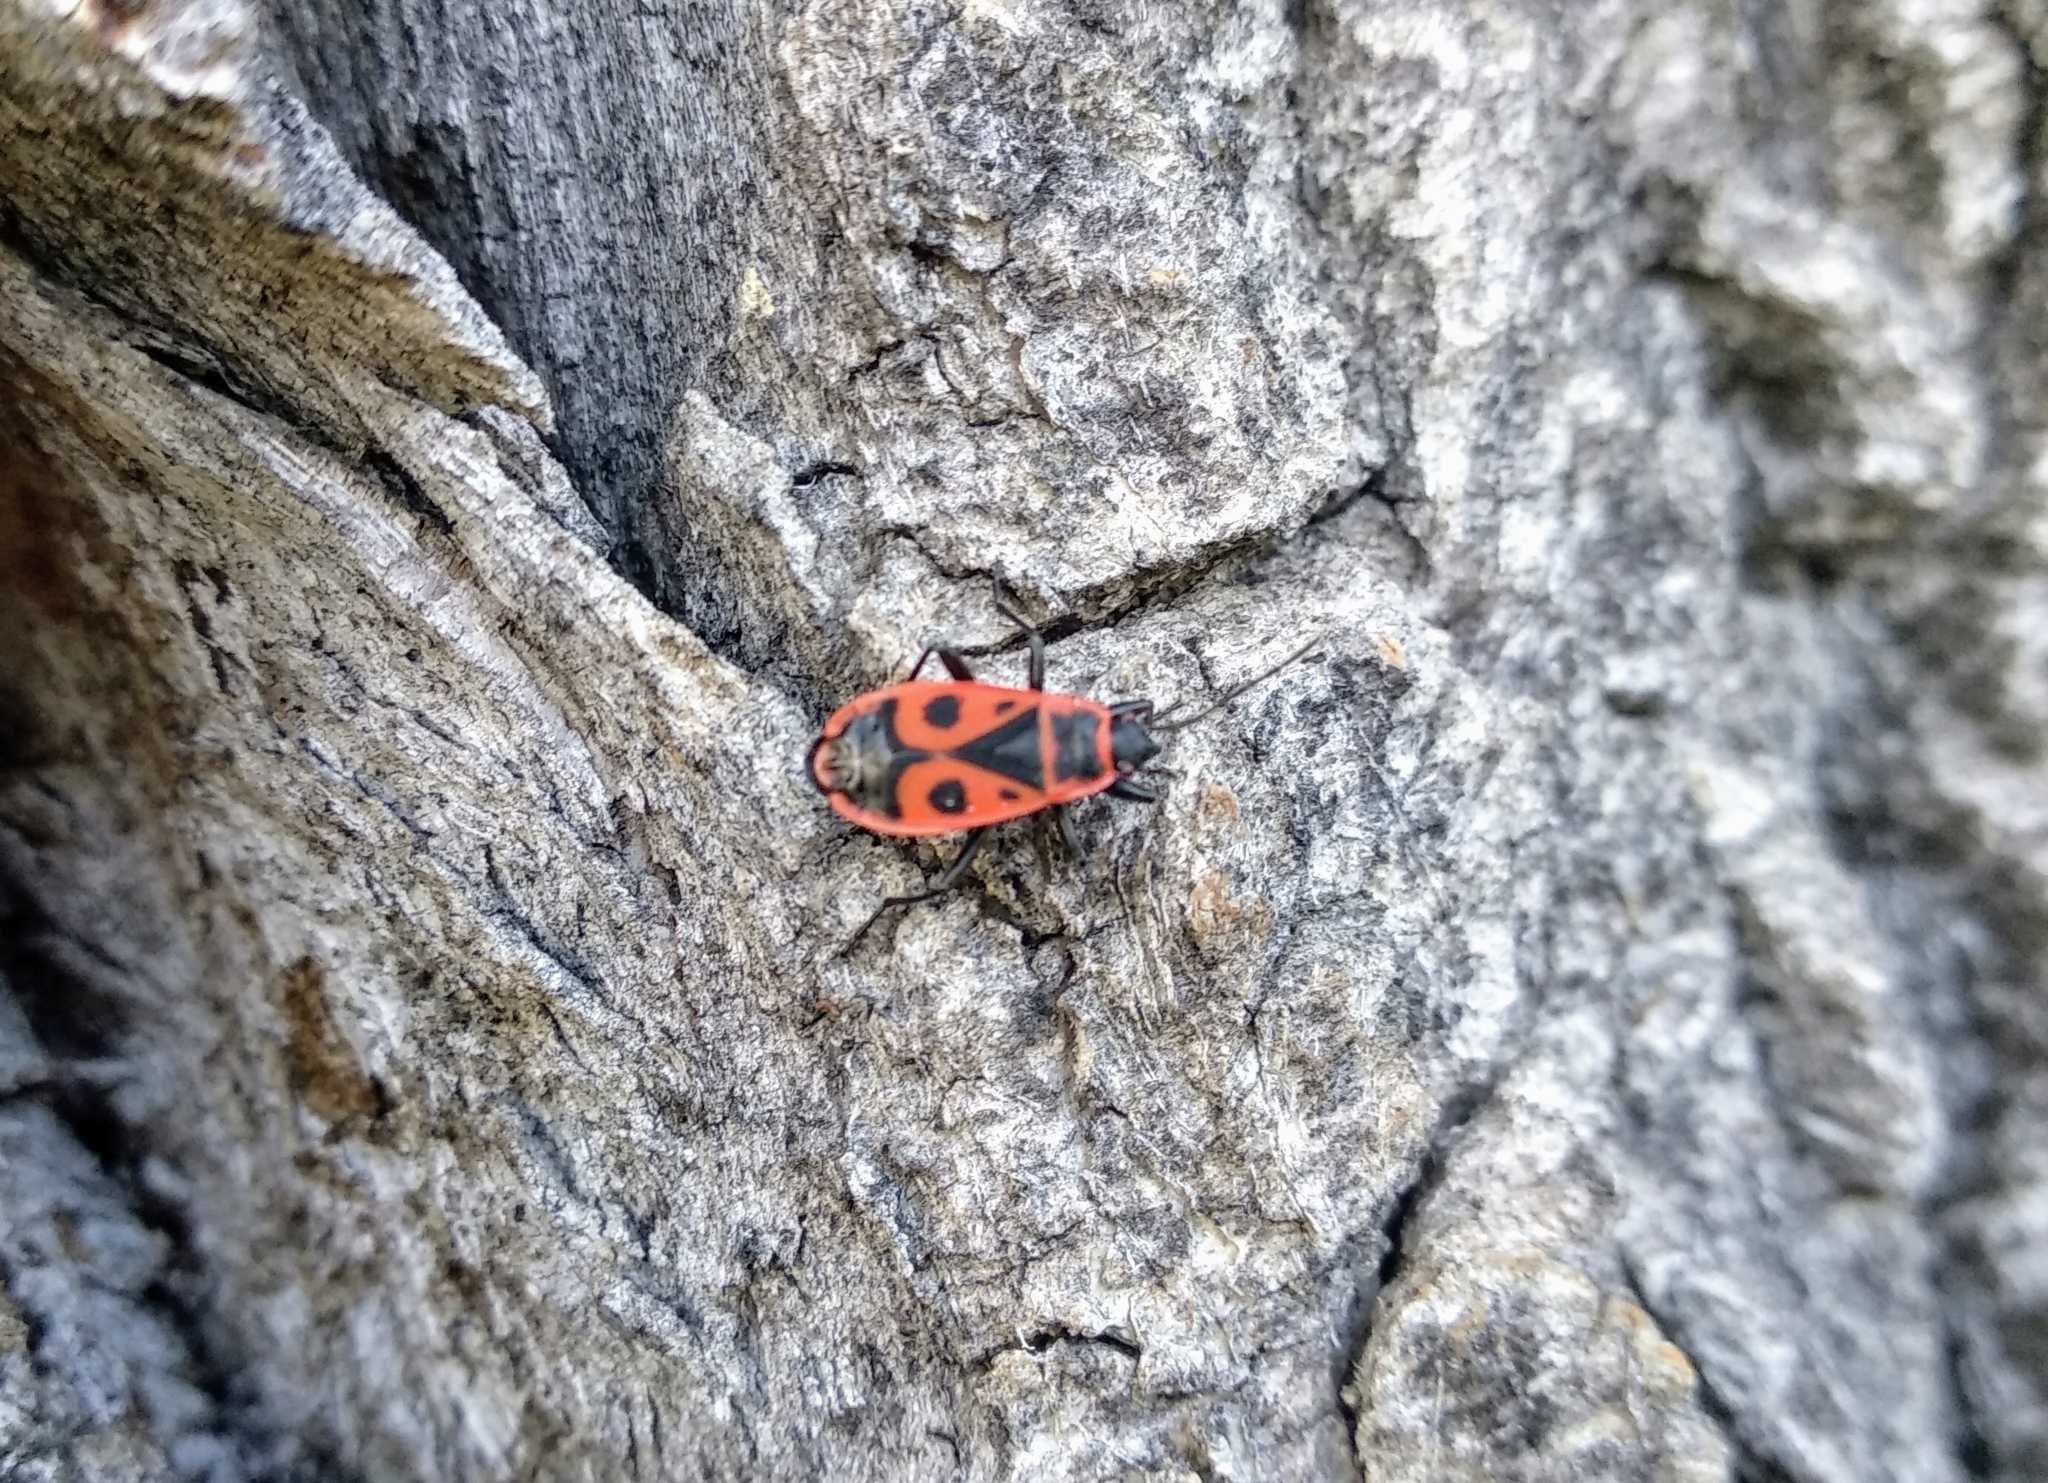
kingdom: Animalia
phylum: Arthropoda
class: Insecta
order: Hemiptera
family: Pyrrhocoridae
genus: Pyrrhocoris
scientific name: Pyrrhocoris apterus
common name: Firebug
